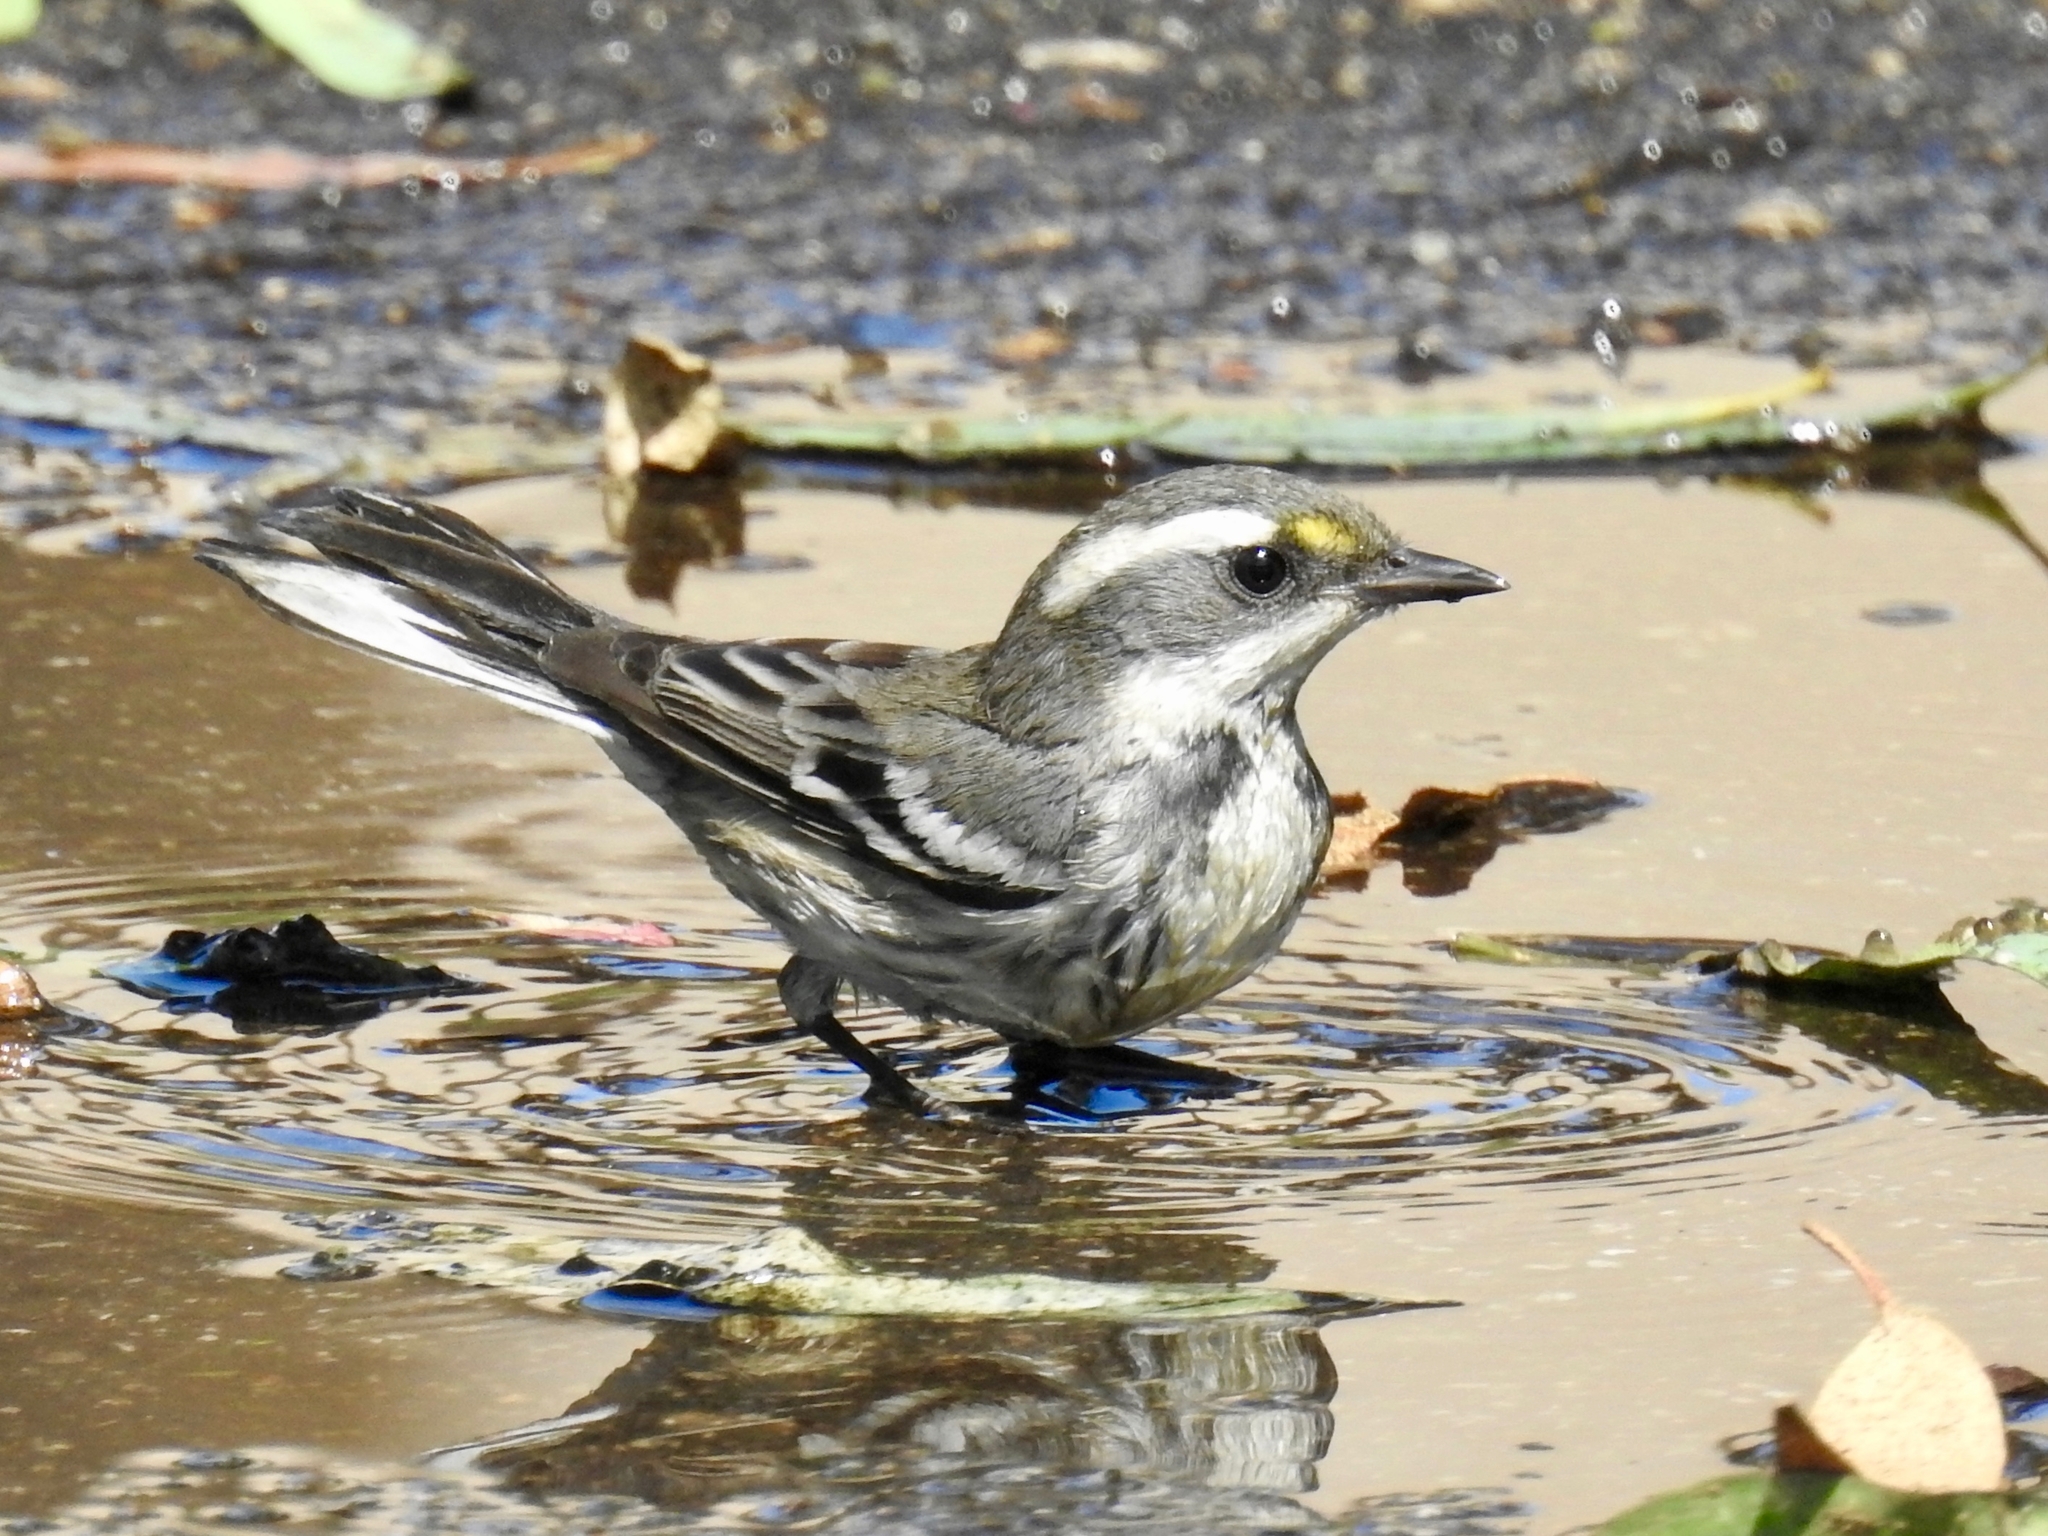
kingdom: Animalia
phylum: Chordata
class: Aves
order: Passeriformes
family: Parulidae
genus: Setophaga
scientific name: Setophaga nigrescens
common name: Black-throated gray warbler
